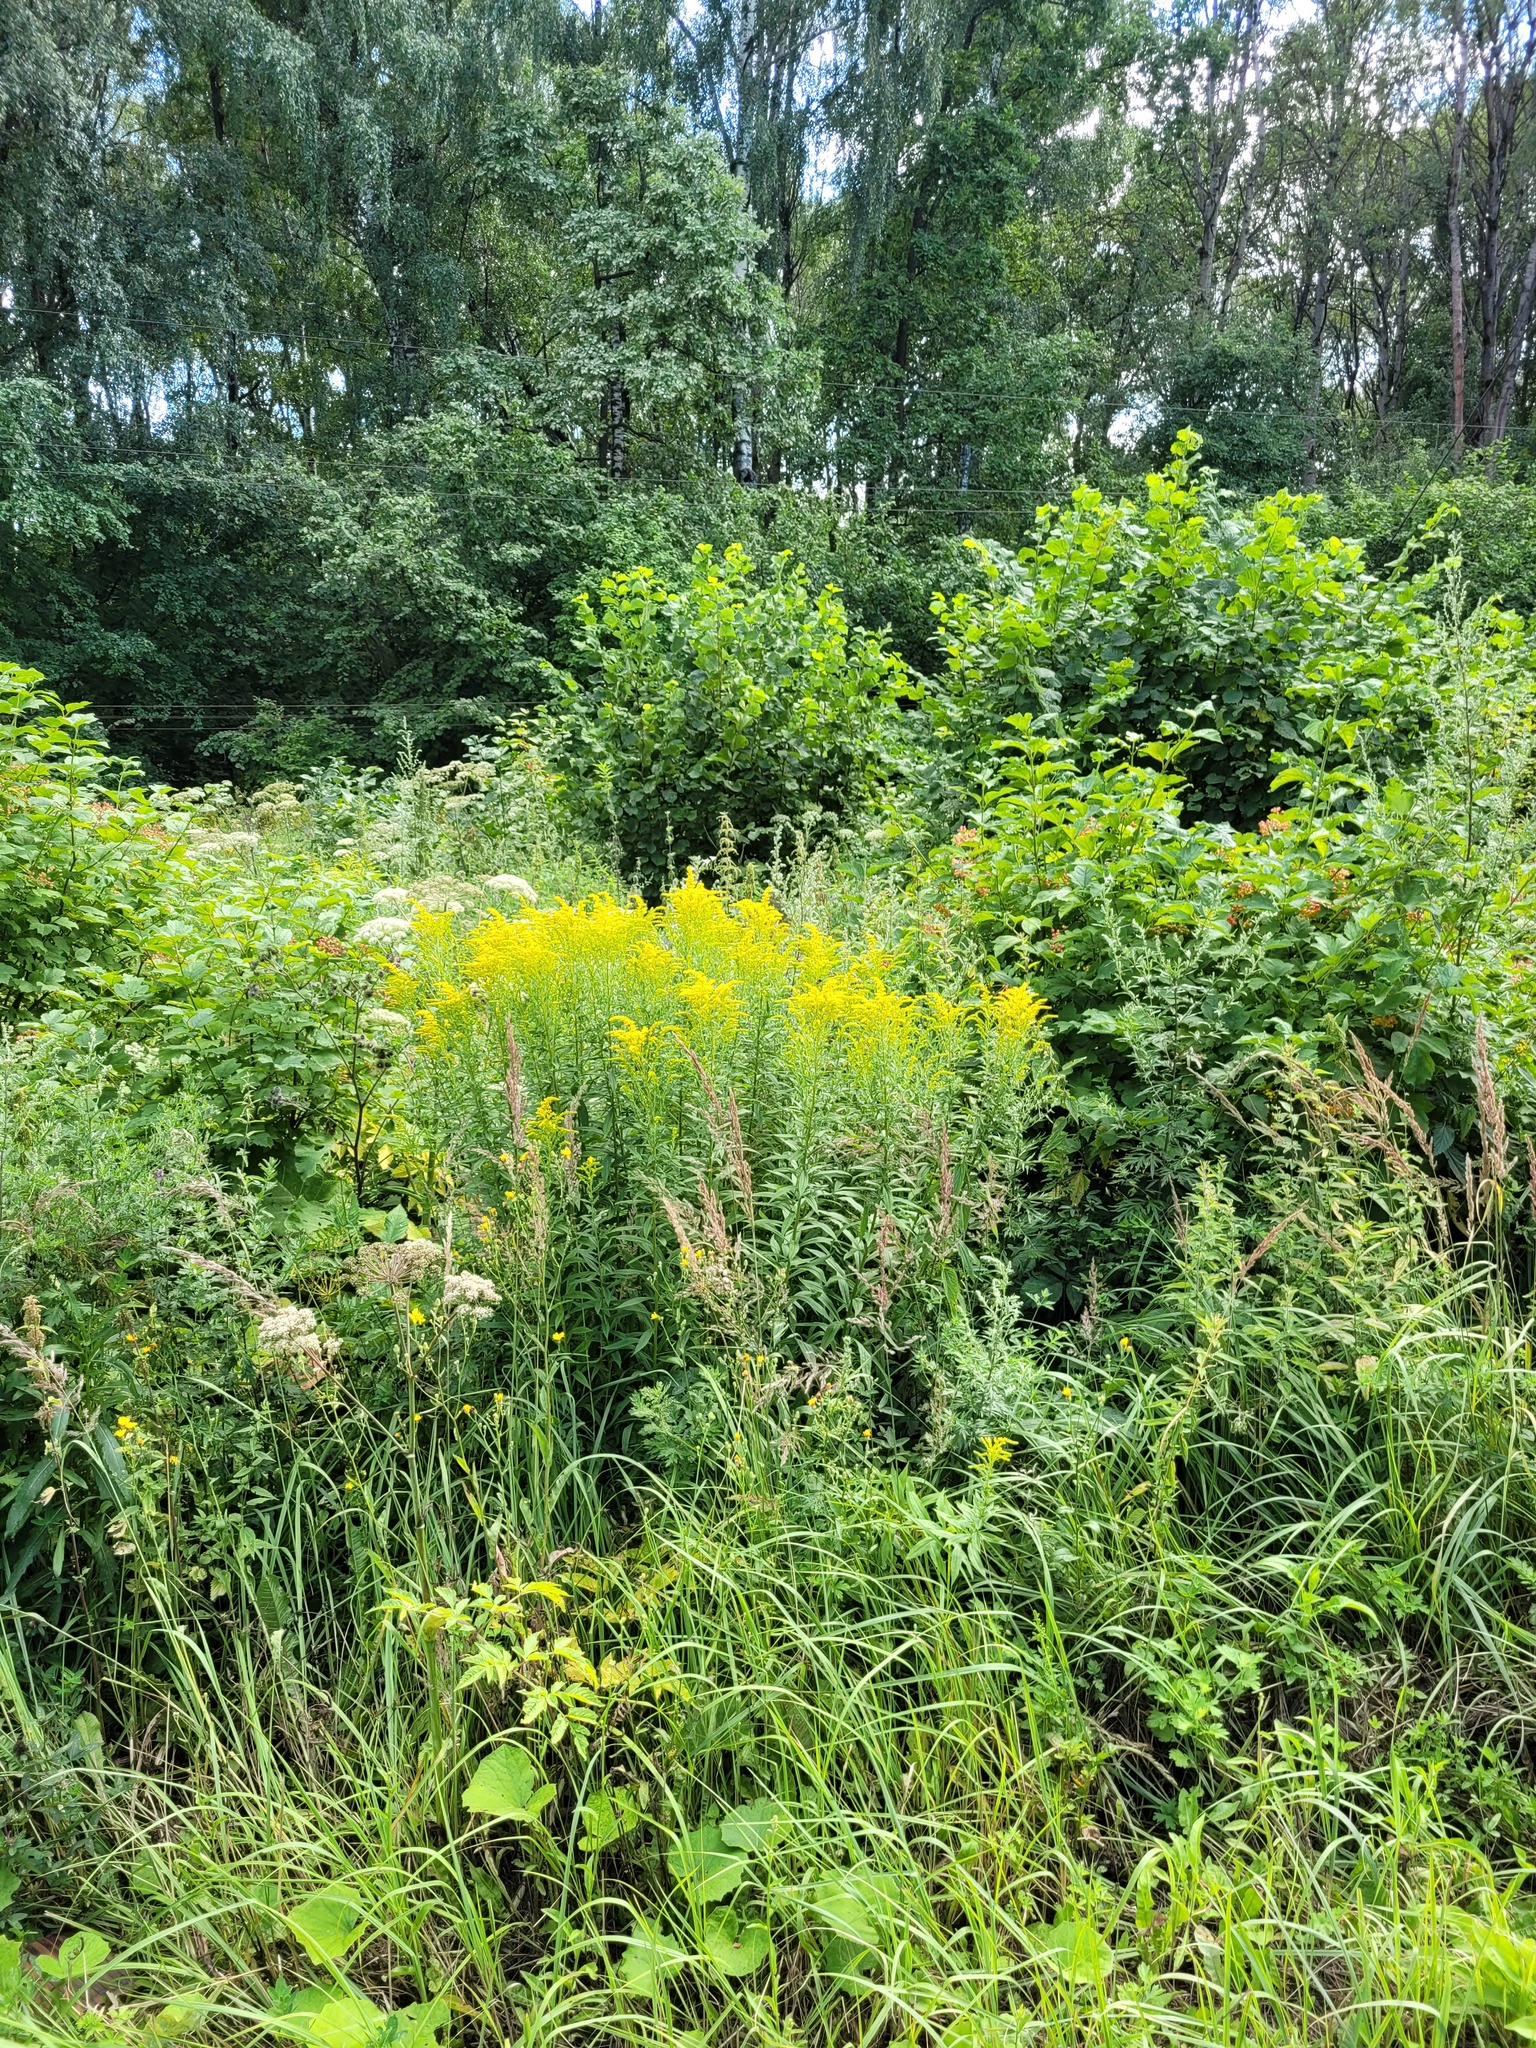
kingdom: Plantae
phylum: Tracheophyta
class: Magnoliopsida
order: Asterales
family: Asteraceae
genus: Solidago
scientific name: Solidago canadensis
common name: Canada goldenrod
